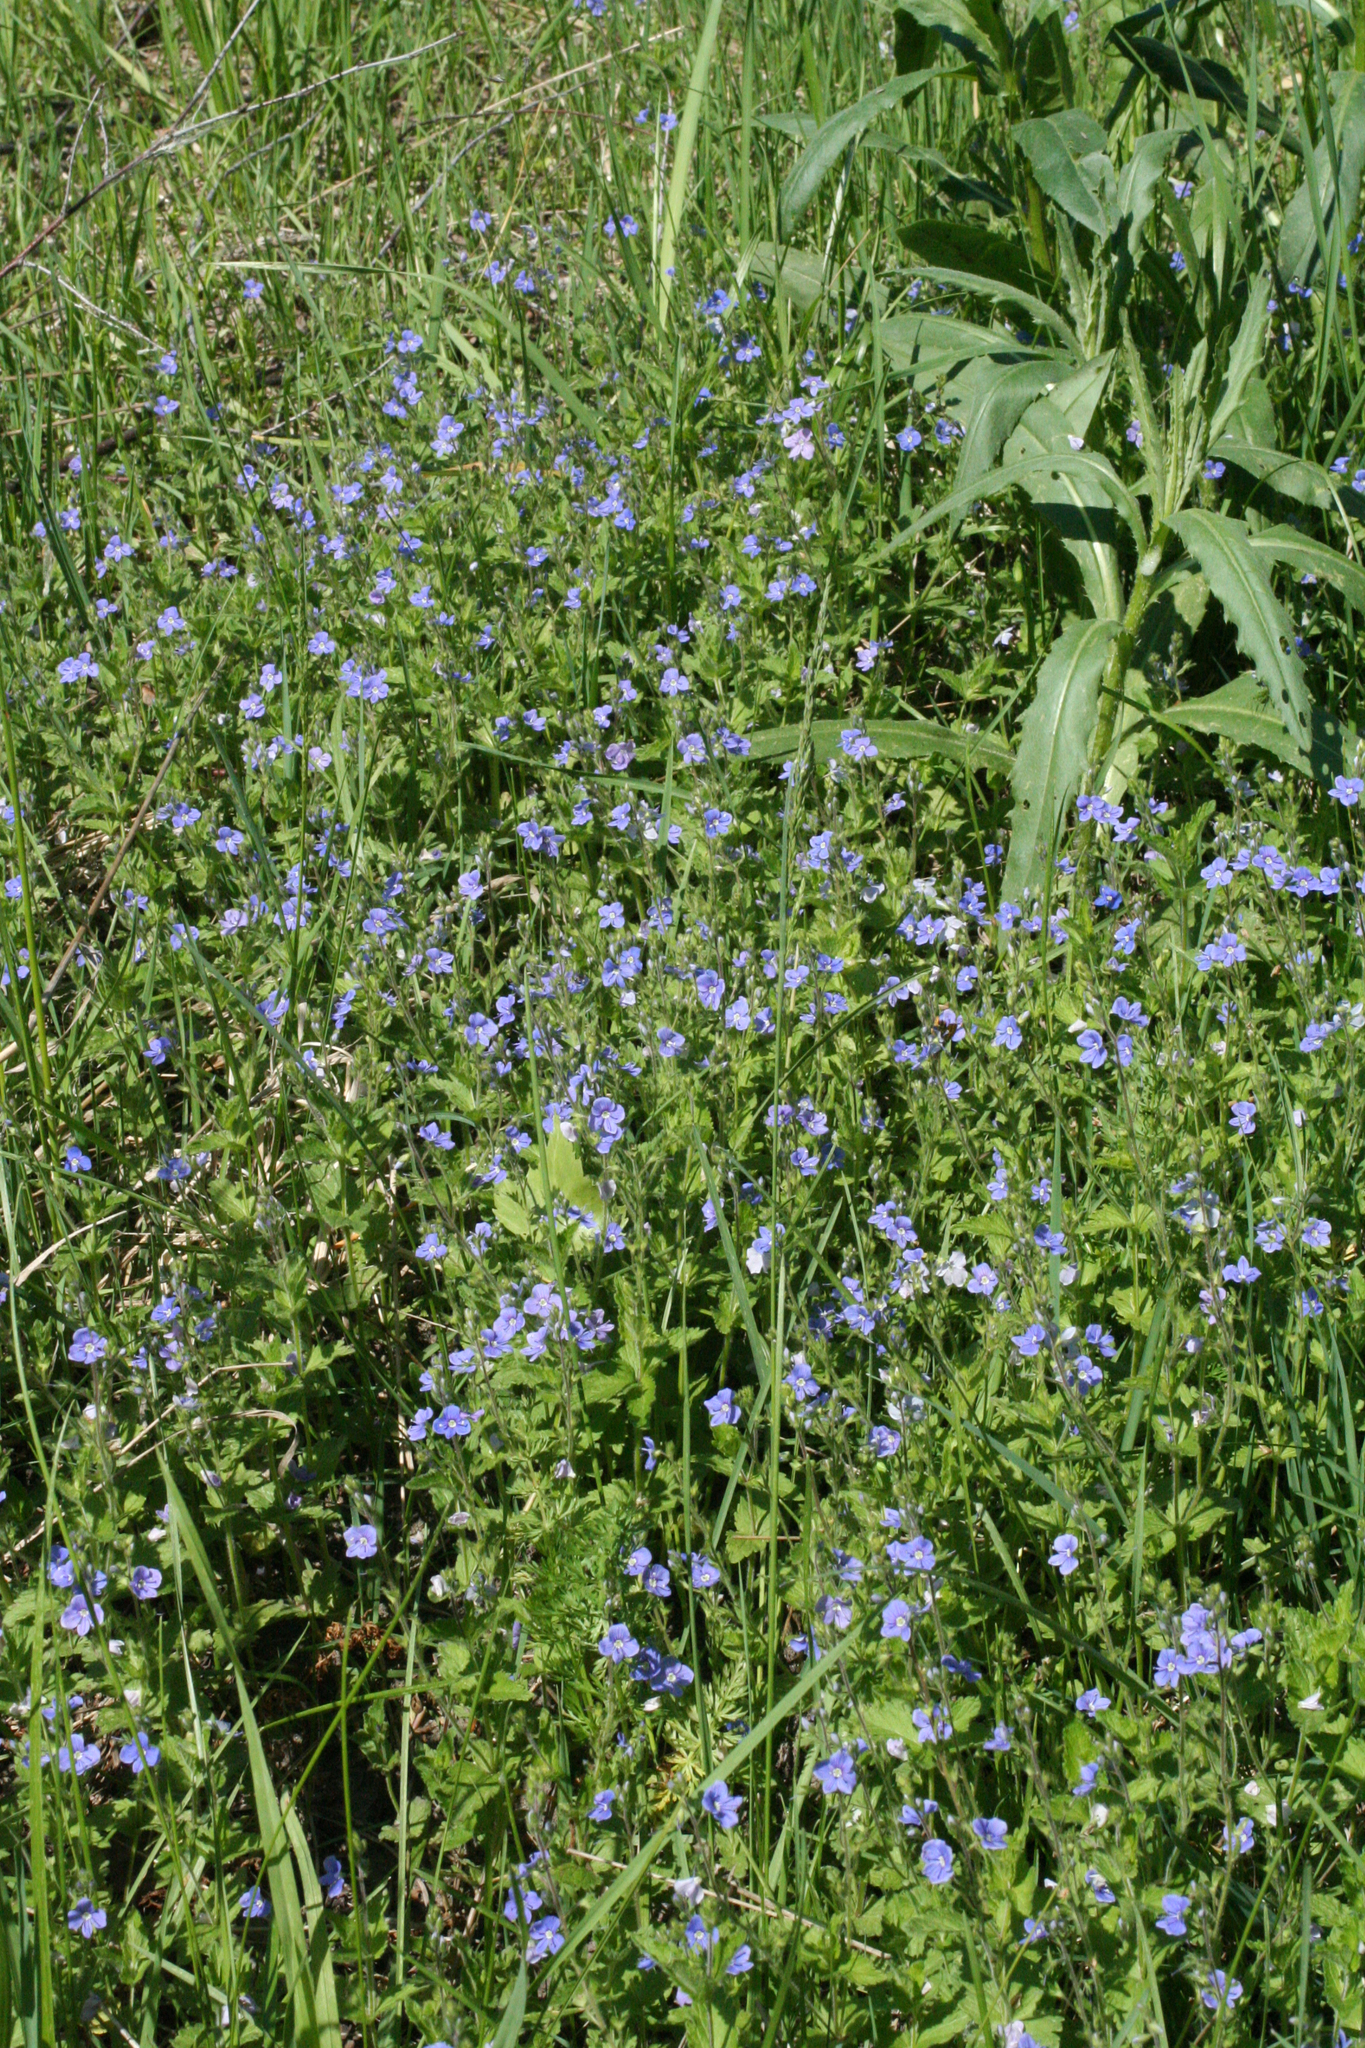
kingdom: Plantae
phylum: Tracheophyta
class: Magnoliopsida
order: Lamiales
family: Plantaginaceae
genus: Veronica
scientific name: Veronica chamaedrys
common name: Germander speedwell
